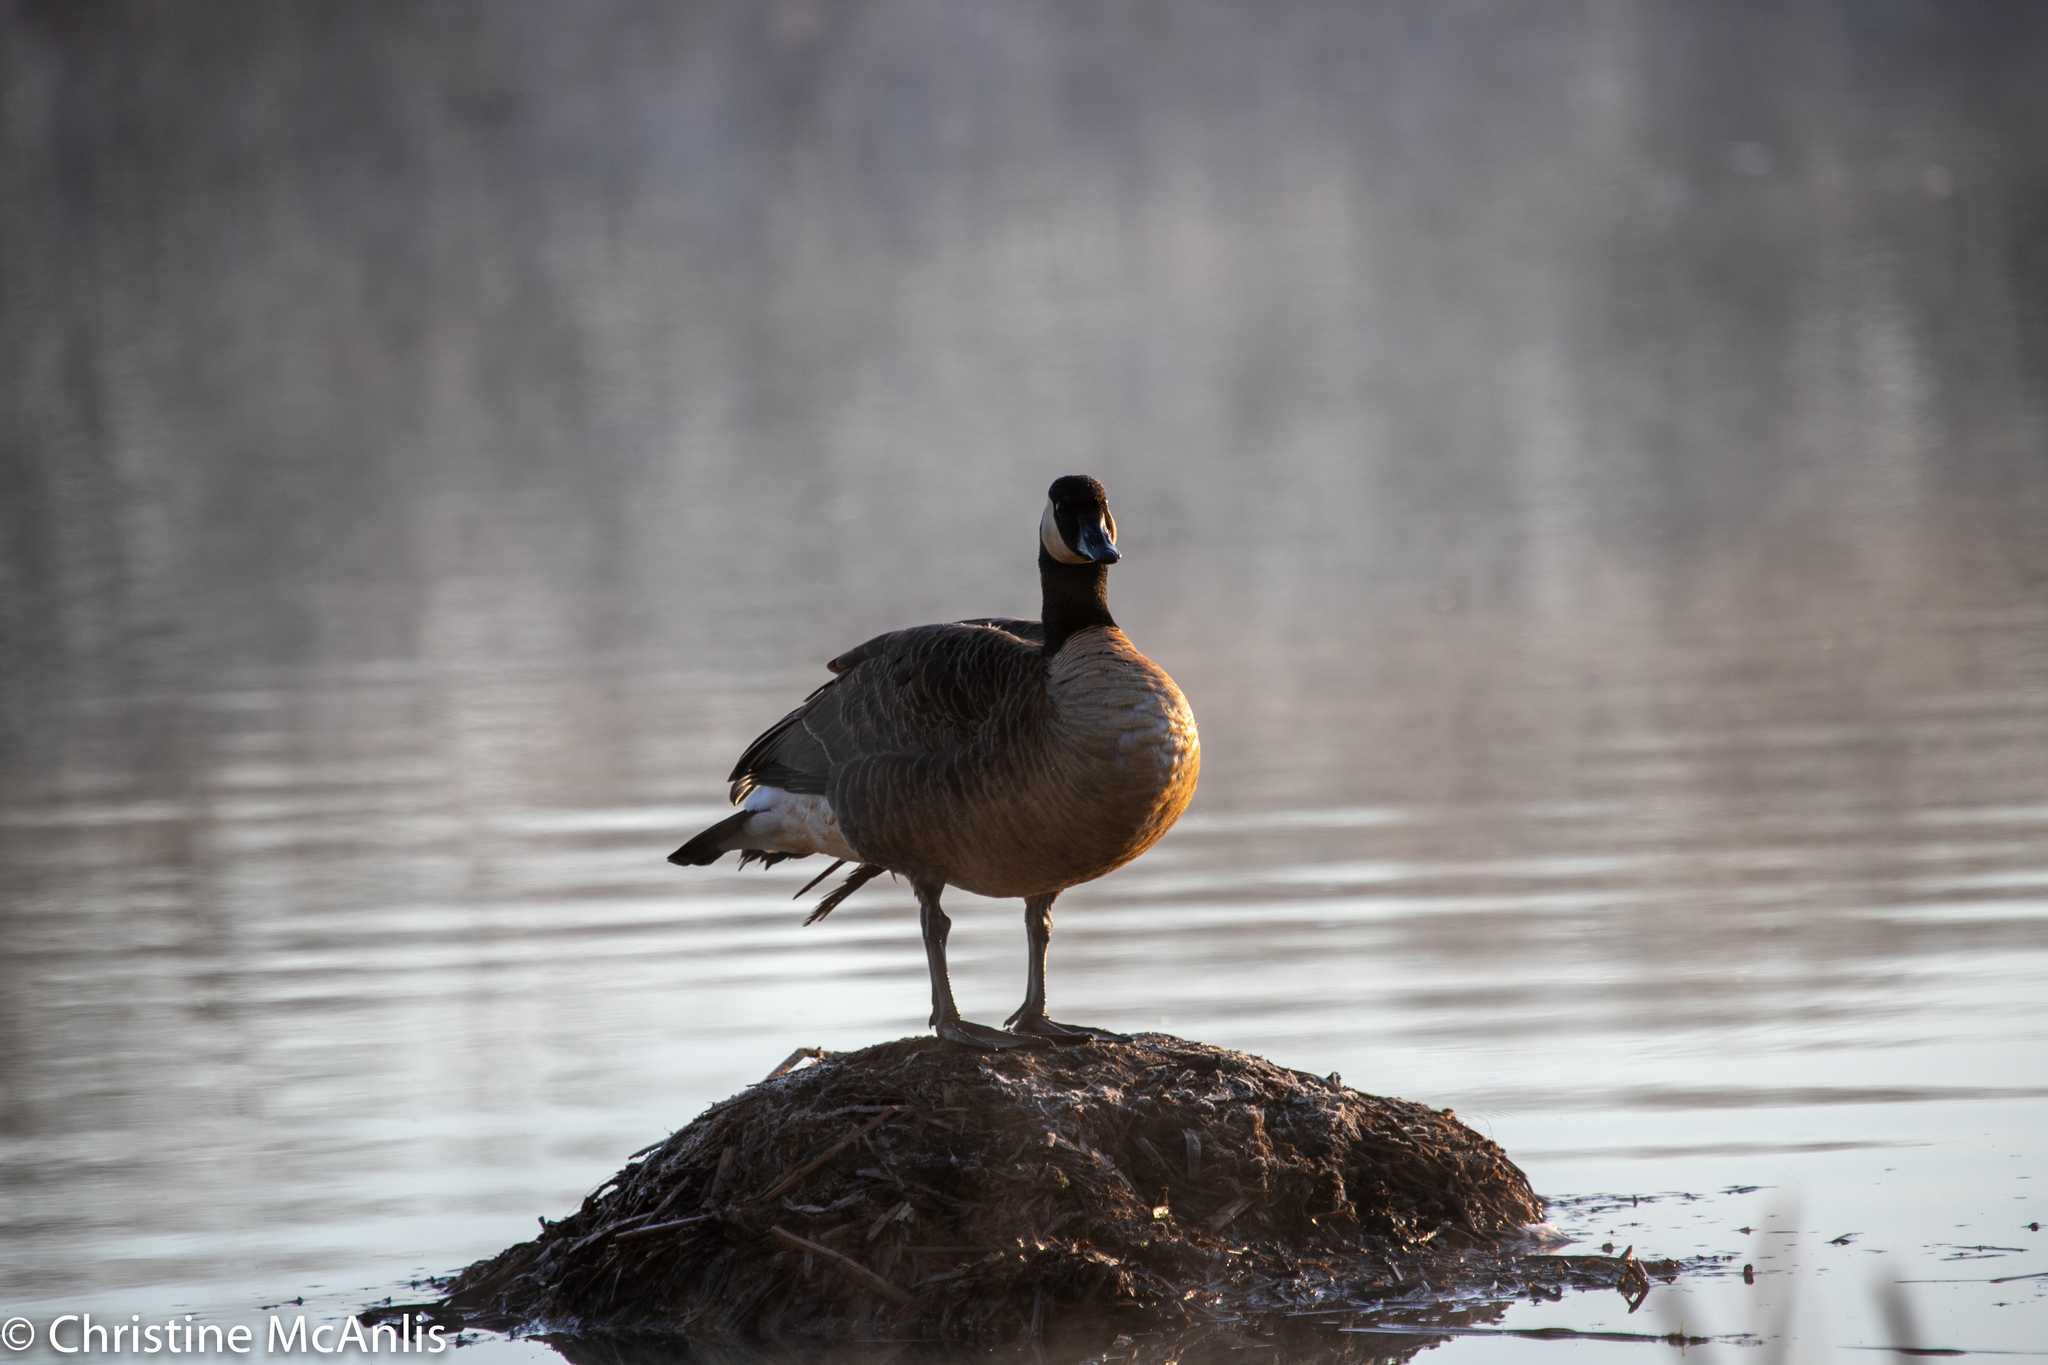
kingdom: Animalia
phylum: Chordata
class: Aves
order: Anseriformes
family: Anatidae
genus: Branta
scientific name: Branta canadensis
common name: Canada goose
